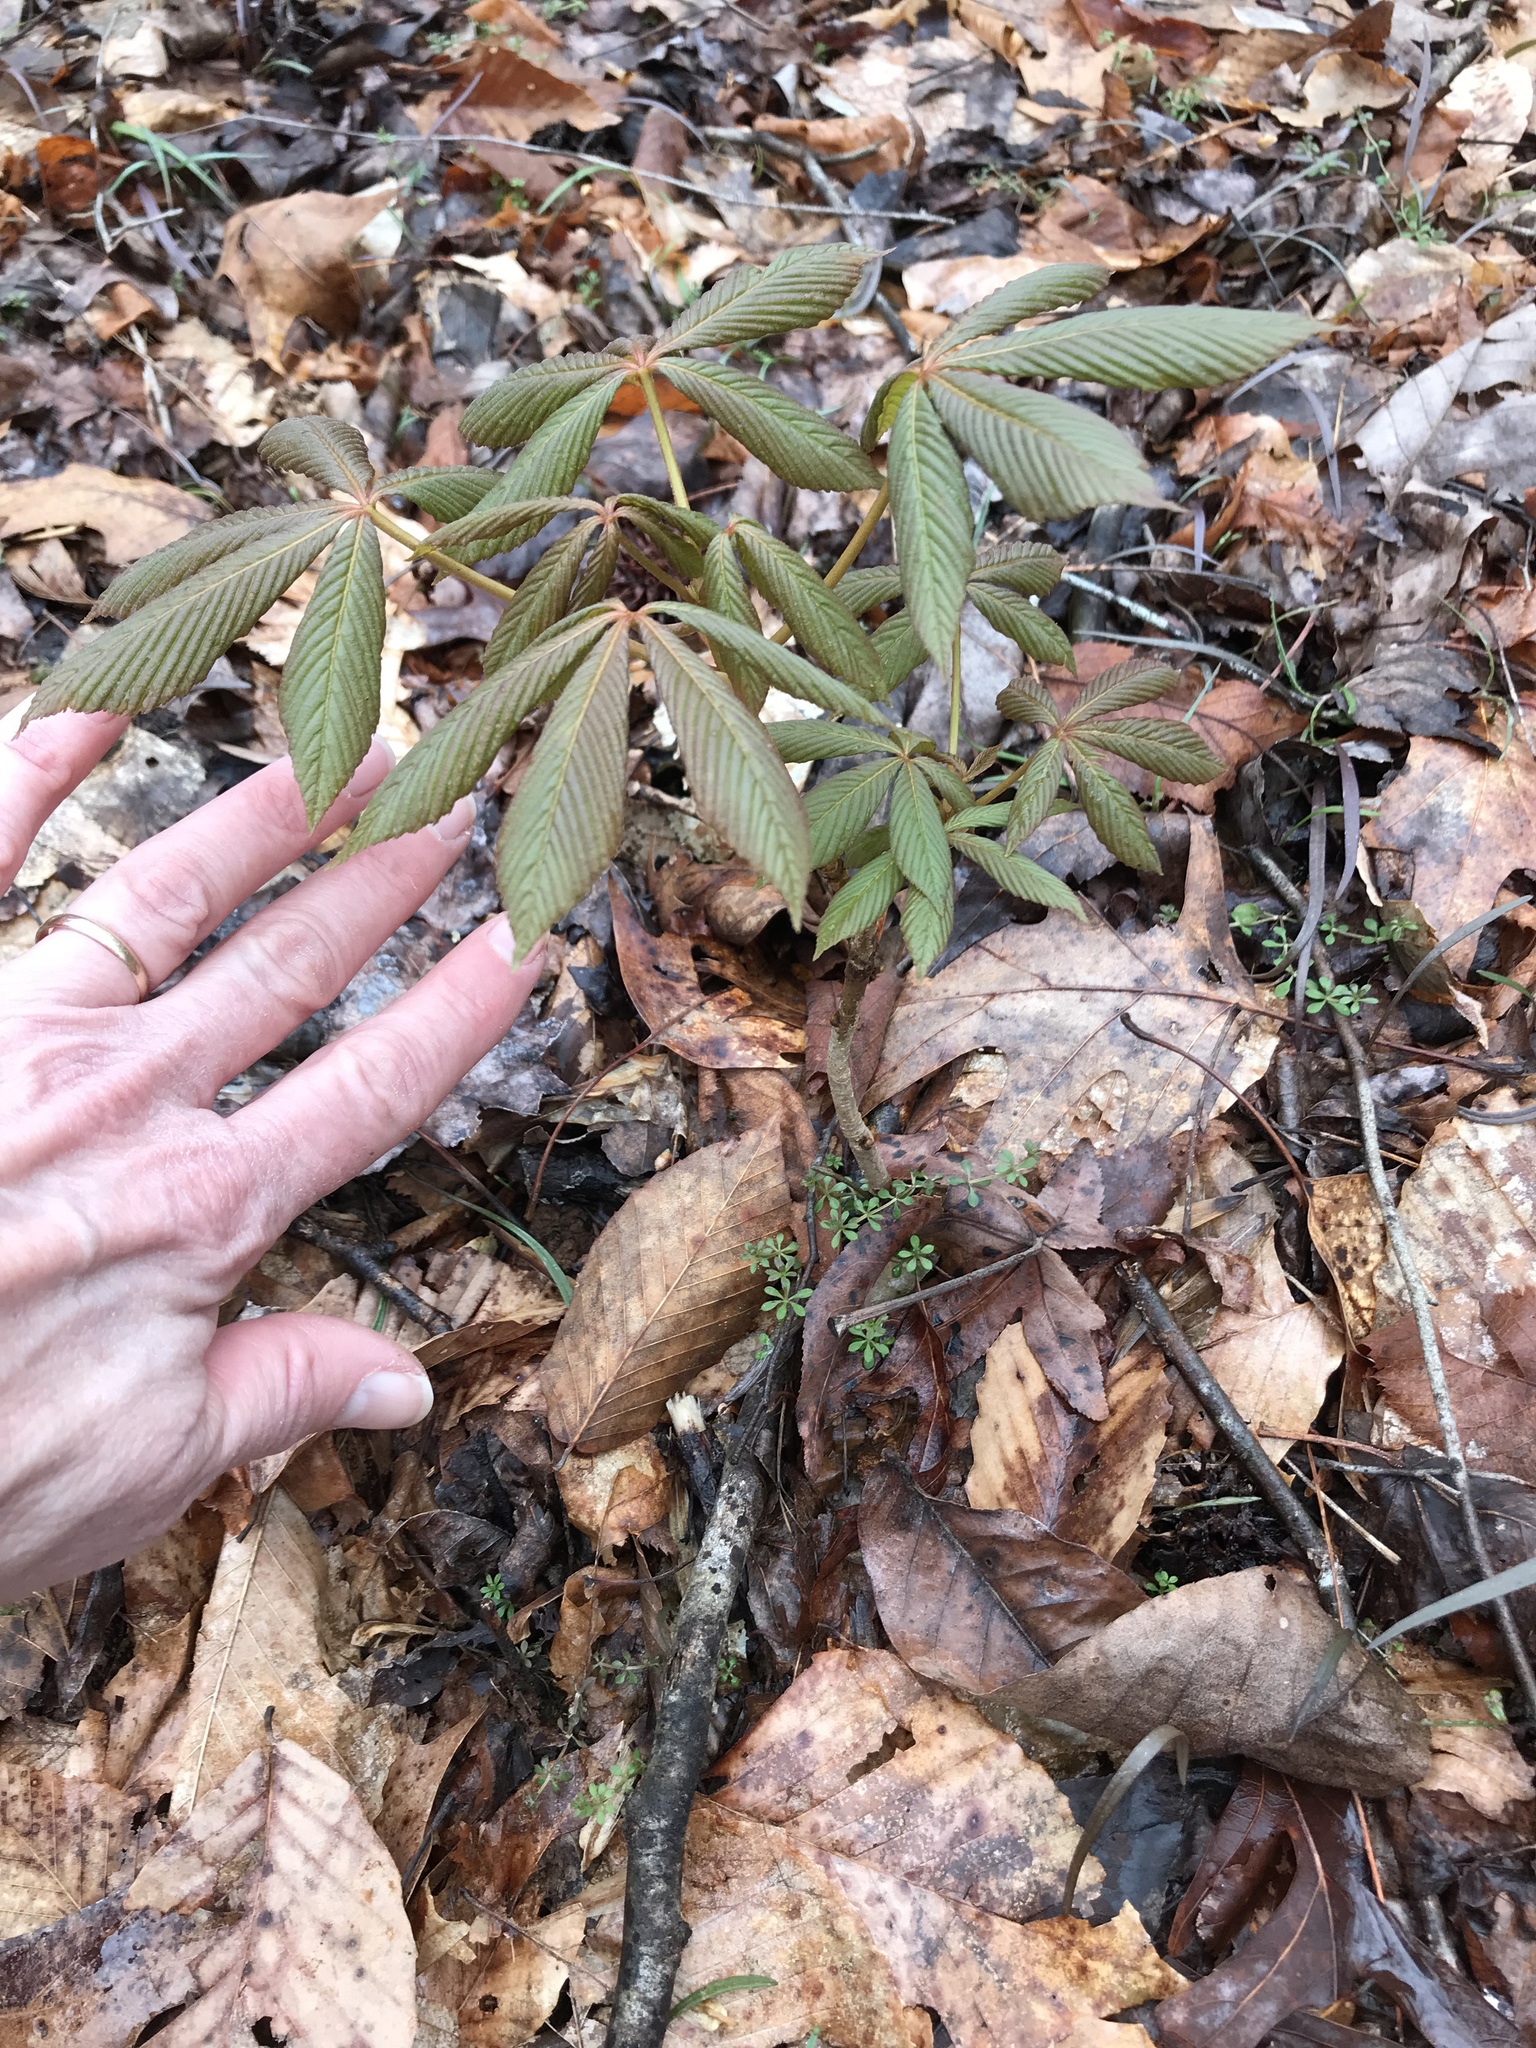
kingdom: Plantae
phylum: Tracheophyta
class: Magnoliopsida
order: Sapindales
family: Sapindaceae
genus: Aesculus
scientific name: Aesculus sylvatica
